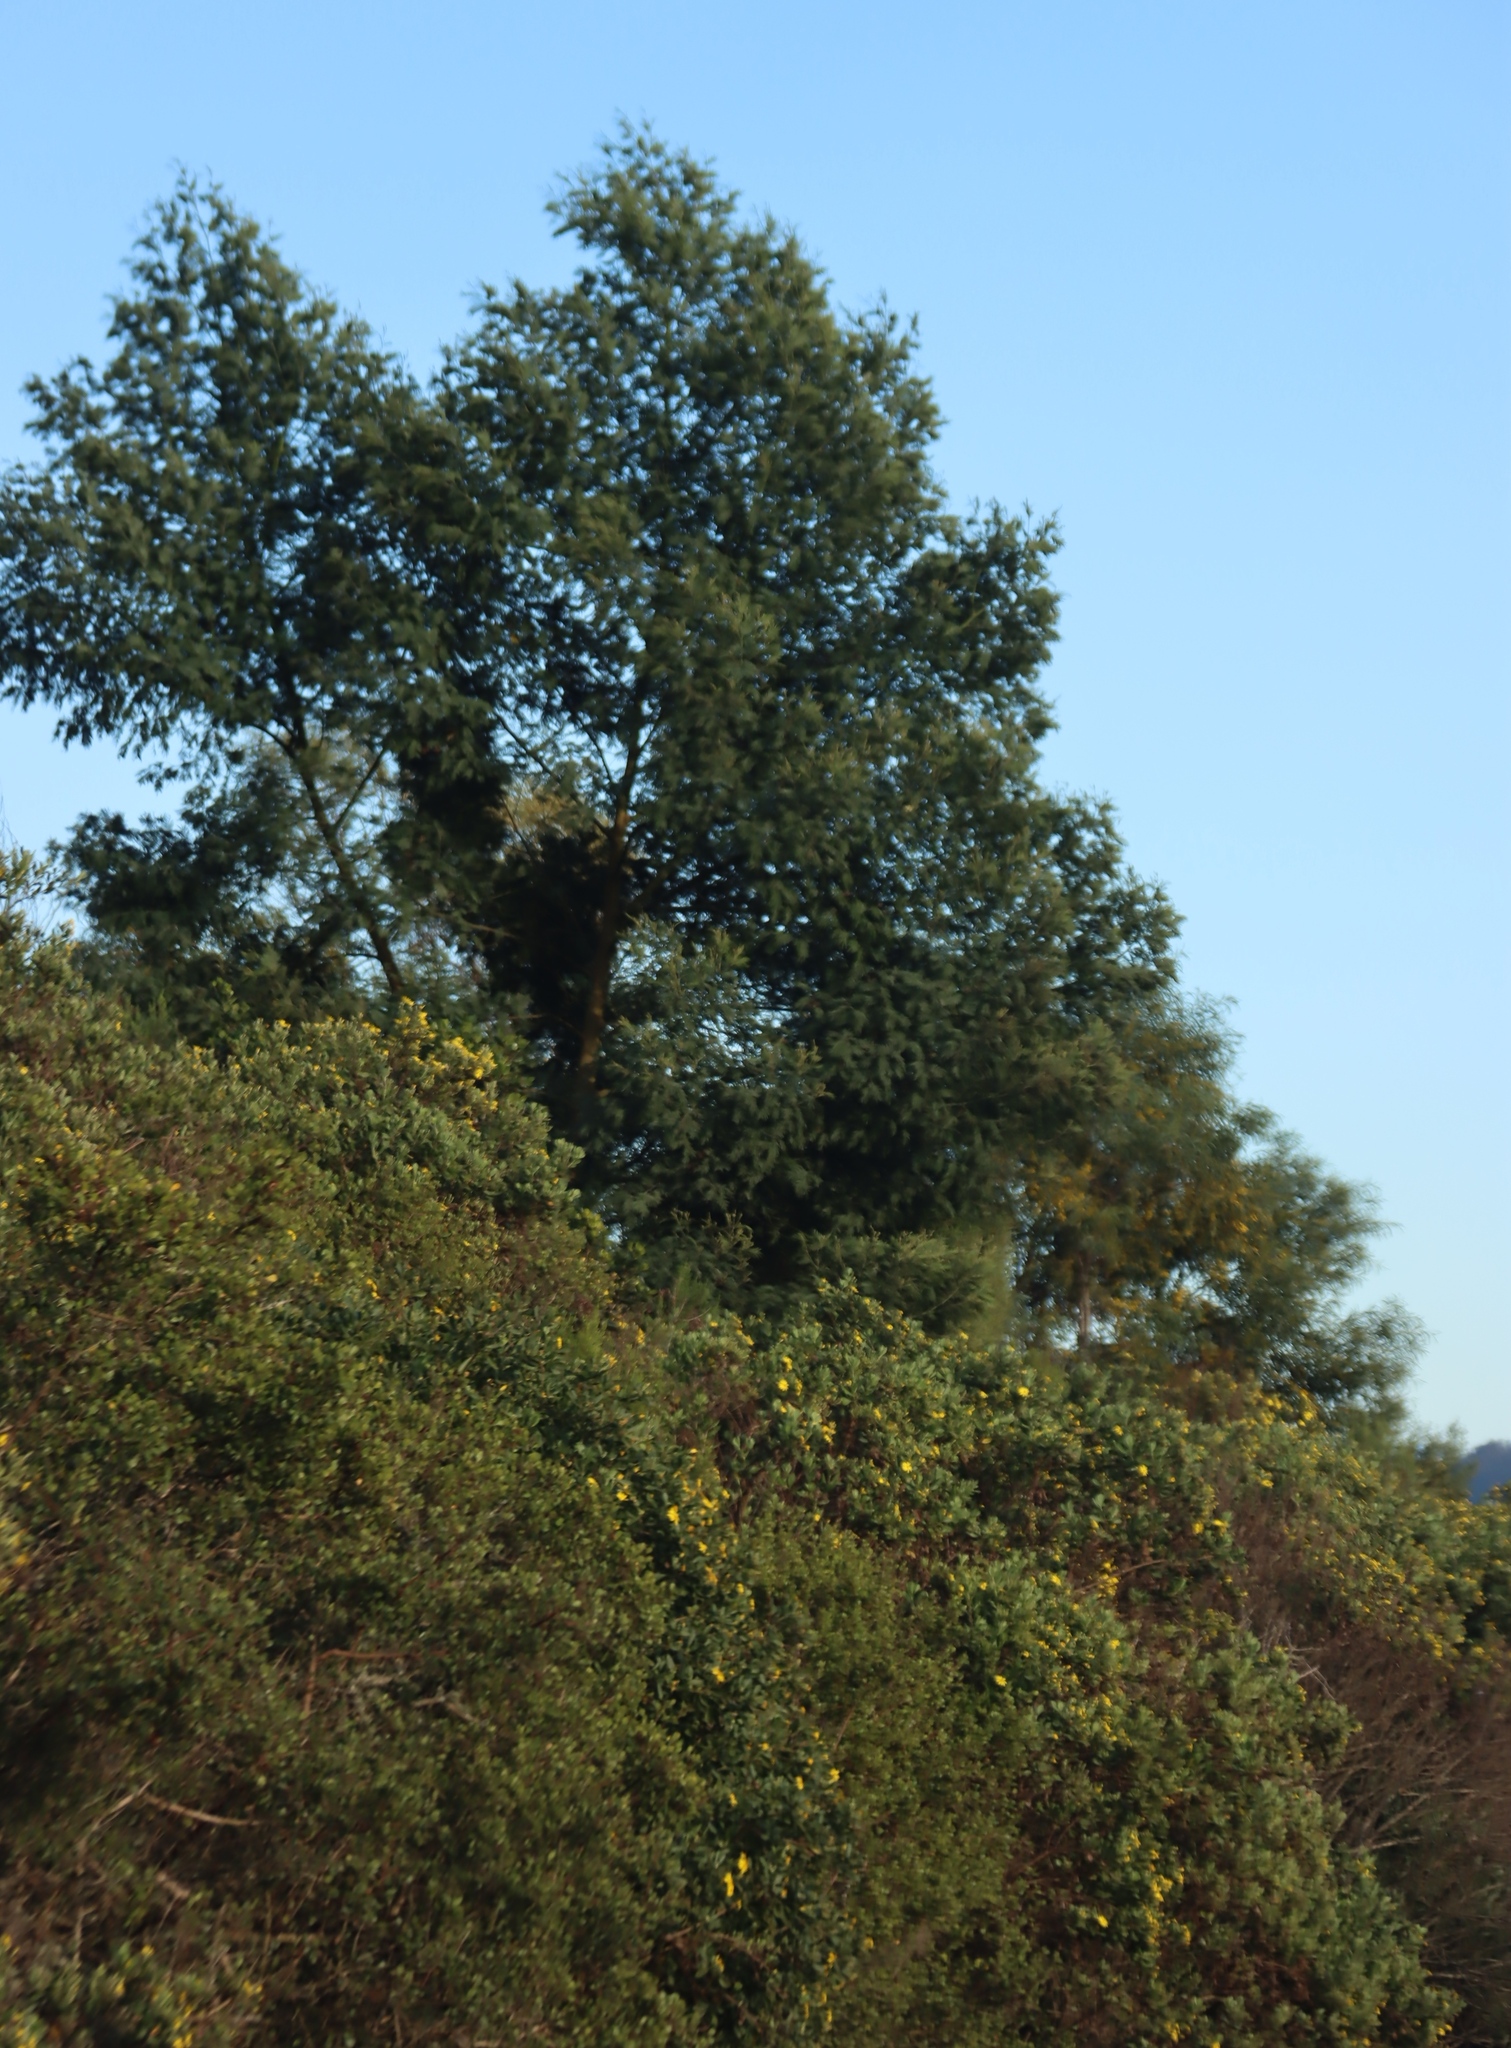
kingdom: Plantae
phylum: Tracheophyta
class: Magnoliopsida
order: Fabales
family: Fabaceae
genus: Acacia
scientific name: Acacia mearnsii
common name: Black wattle
